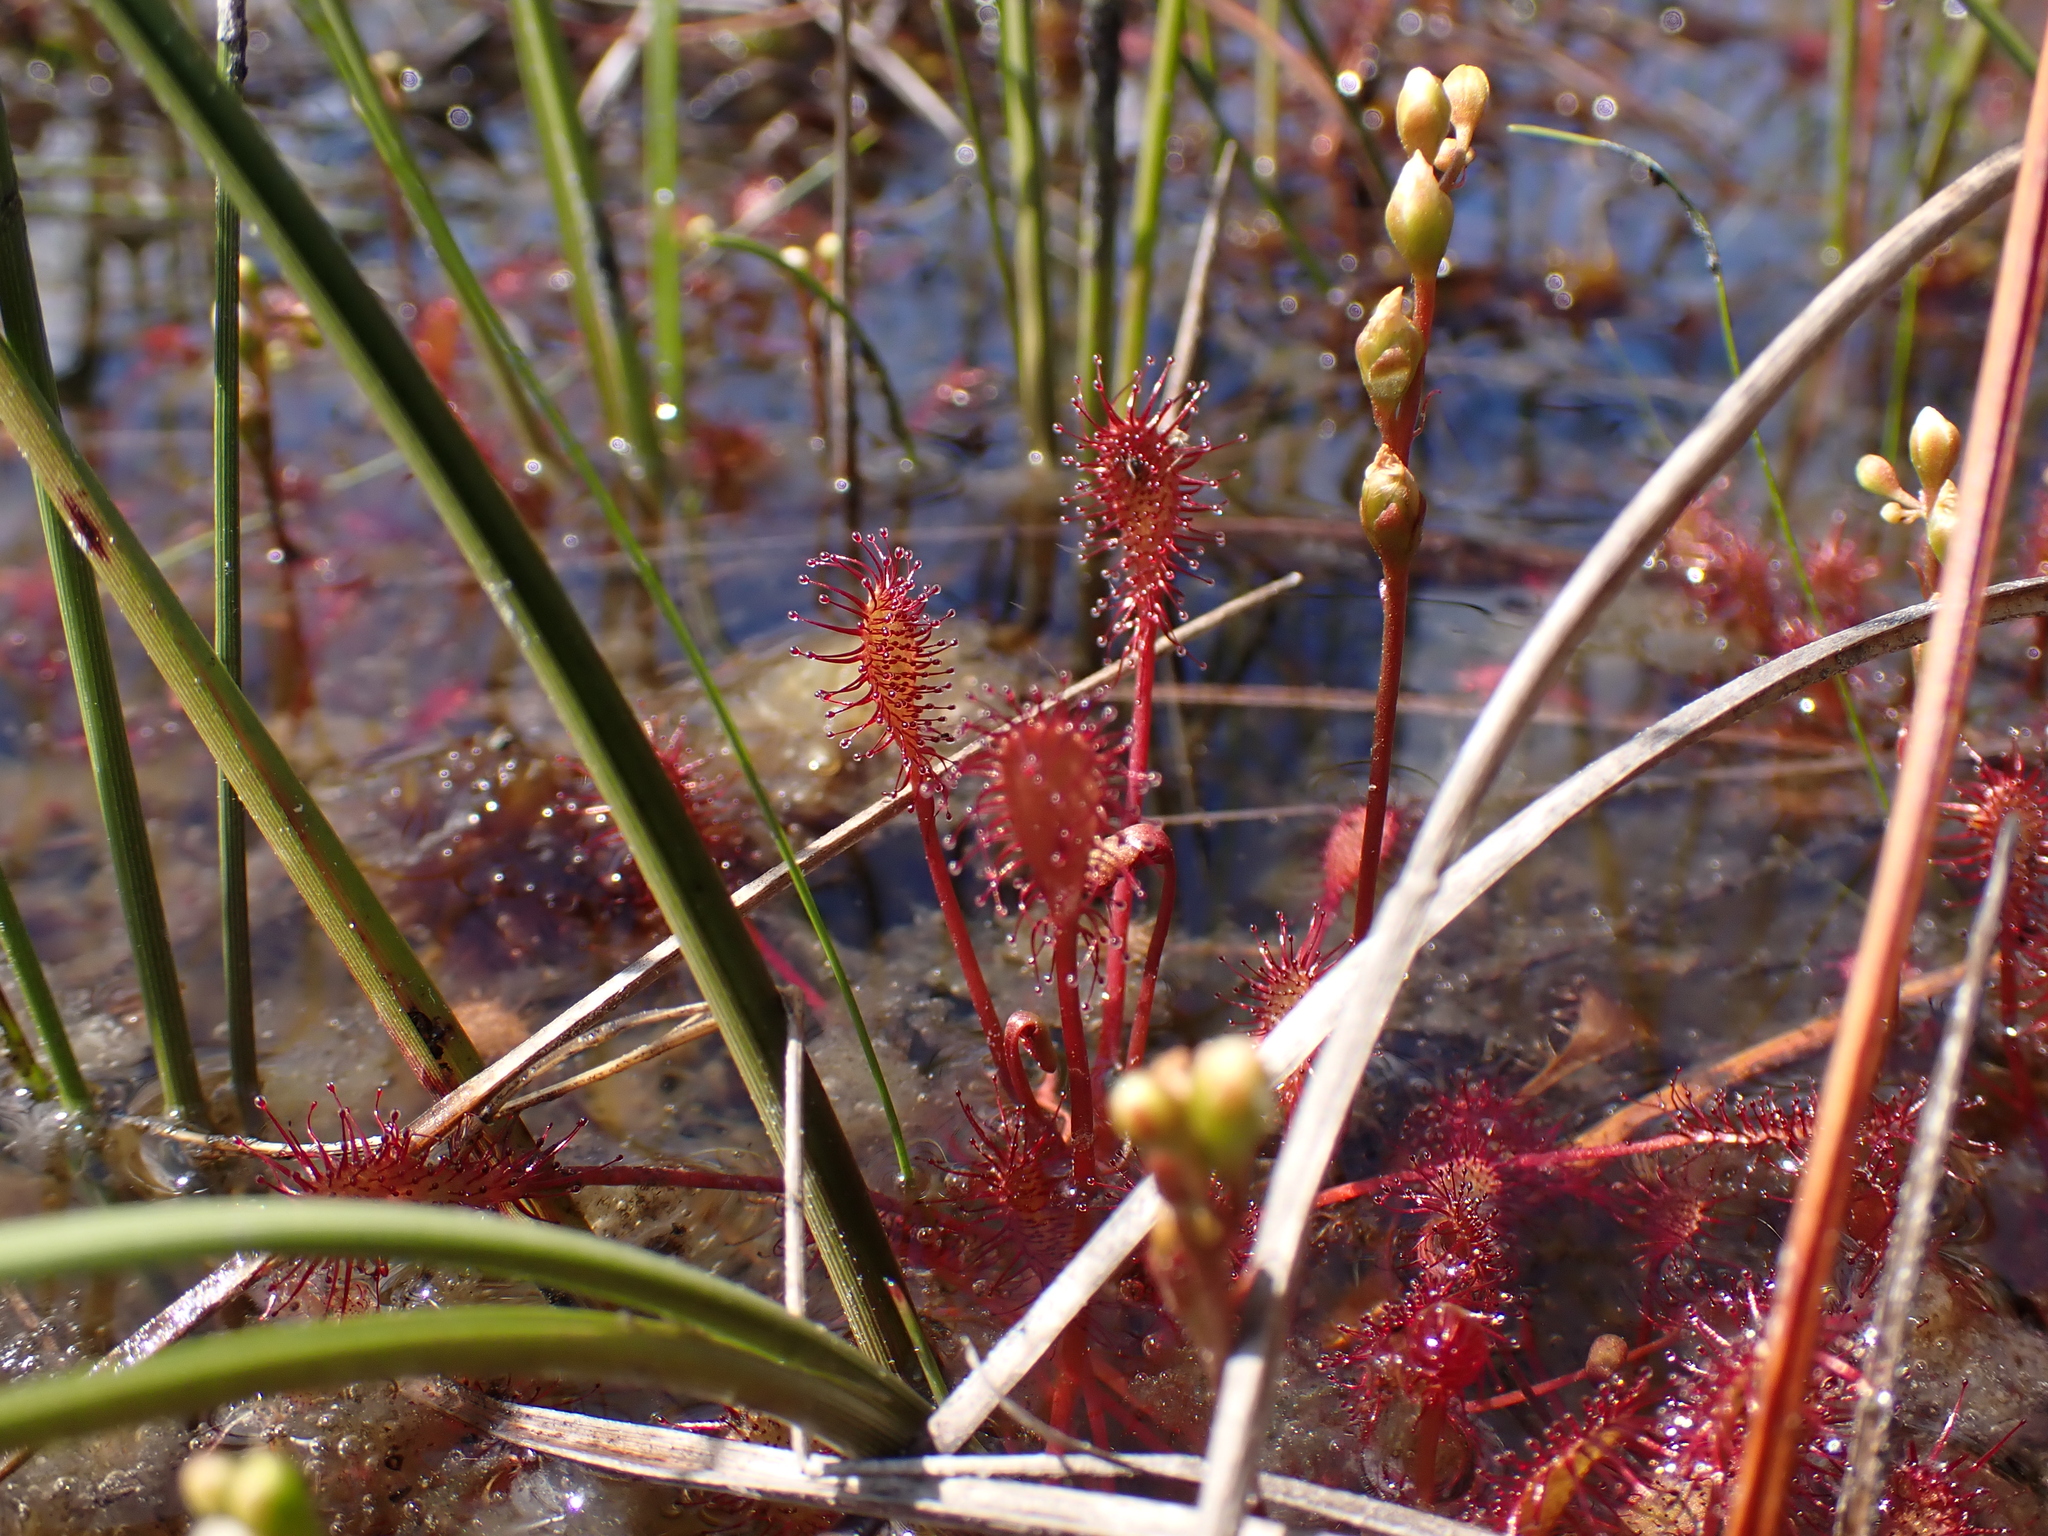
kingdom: Plantae
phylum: Tracheophyta
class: Magnoliopsida
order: Caryophyllales
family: Droseraceae
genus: Drosera
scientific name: Drosera intermedia
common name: Oblong-leaved sundew
